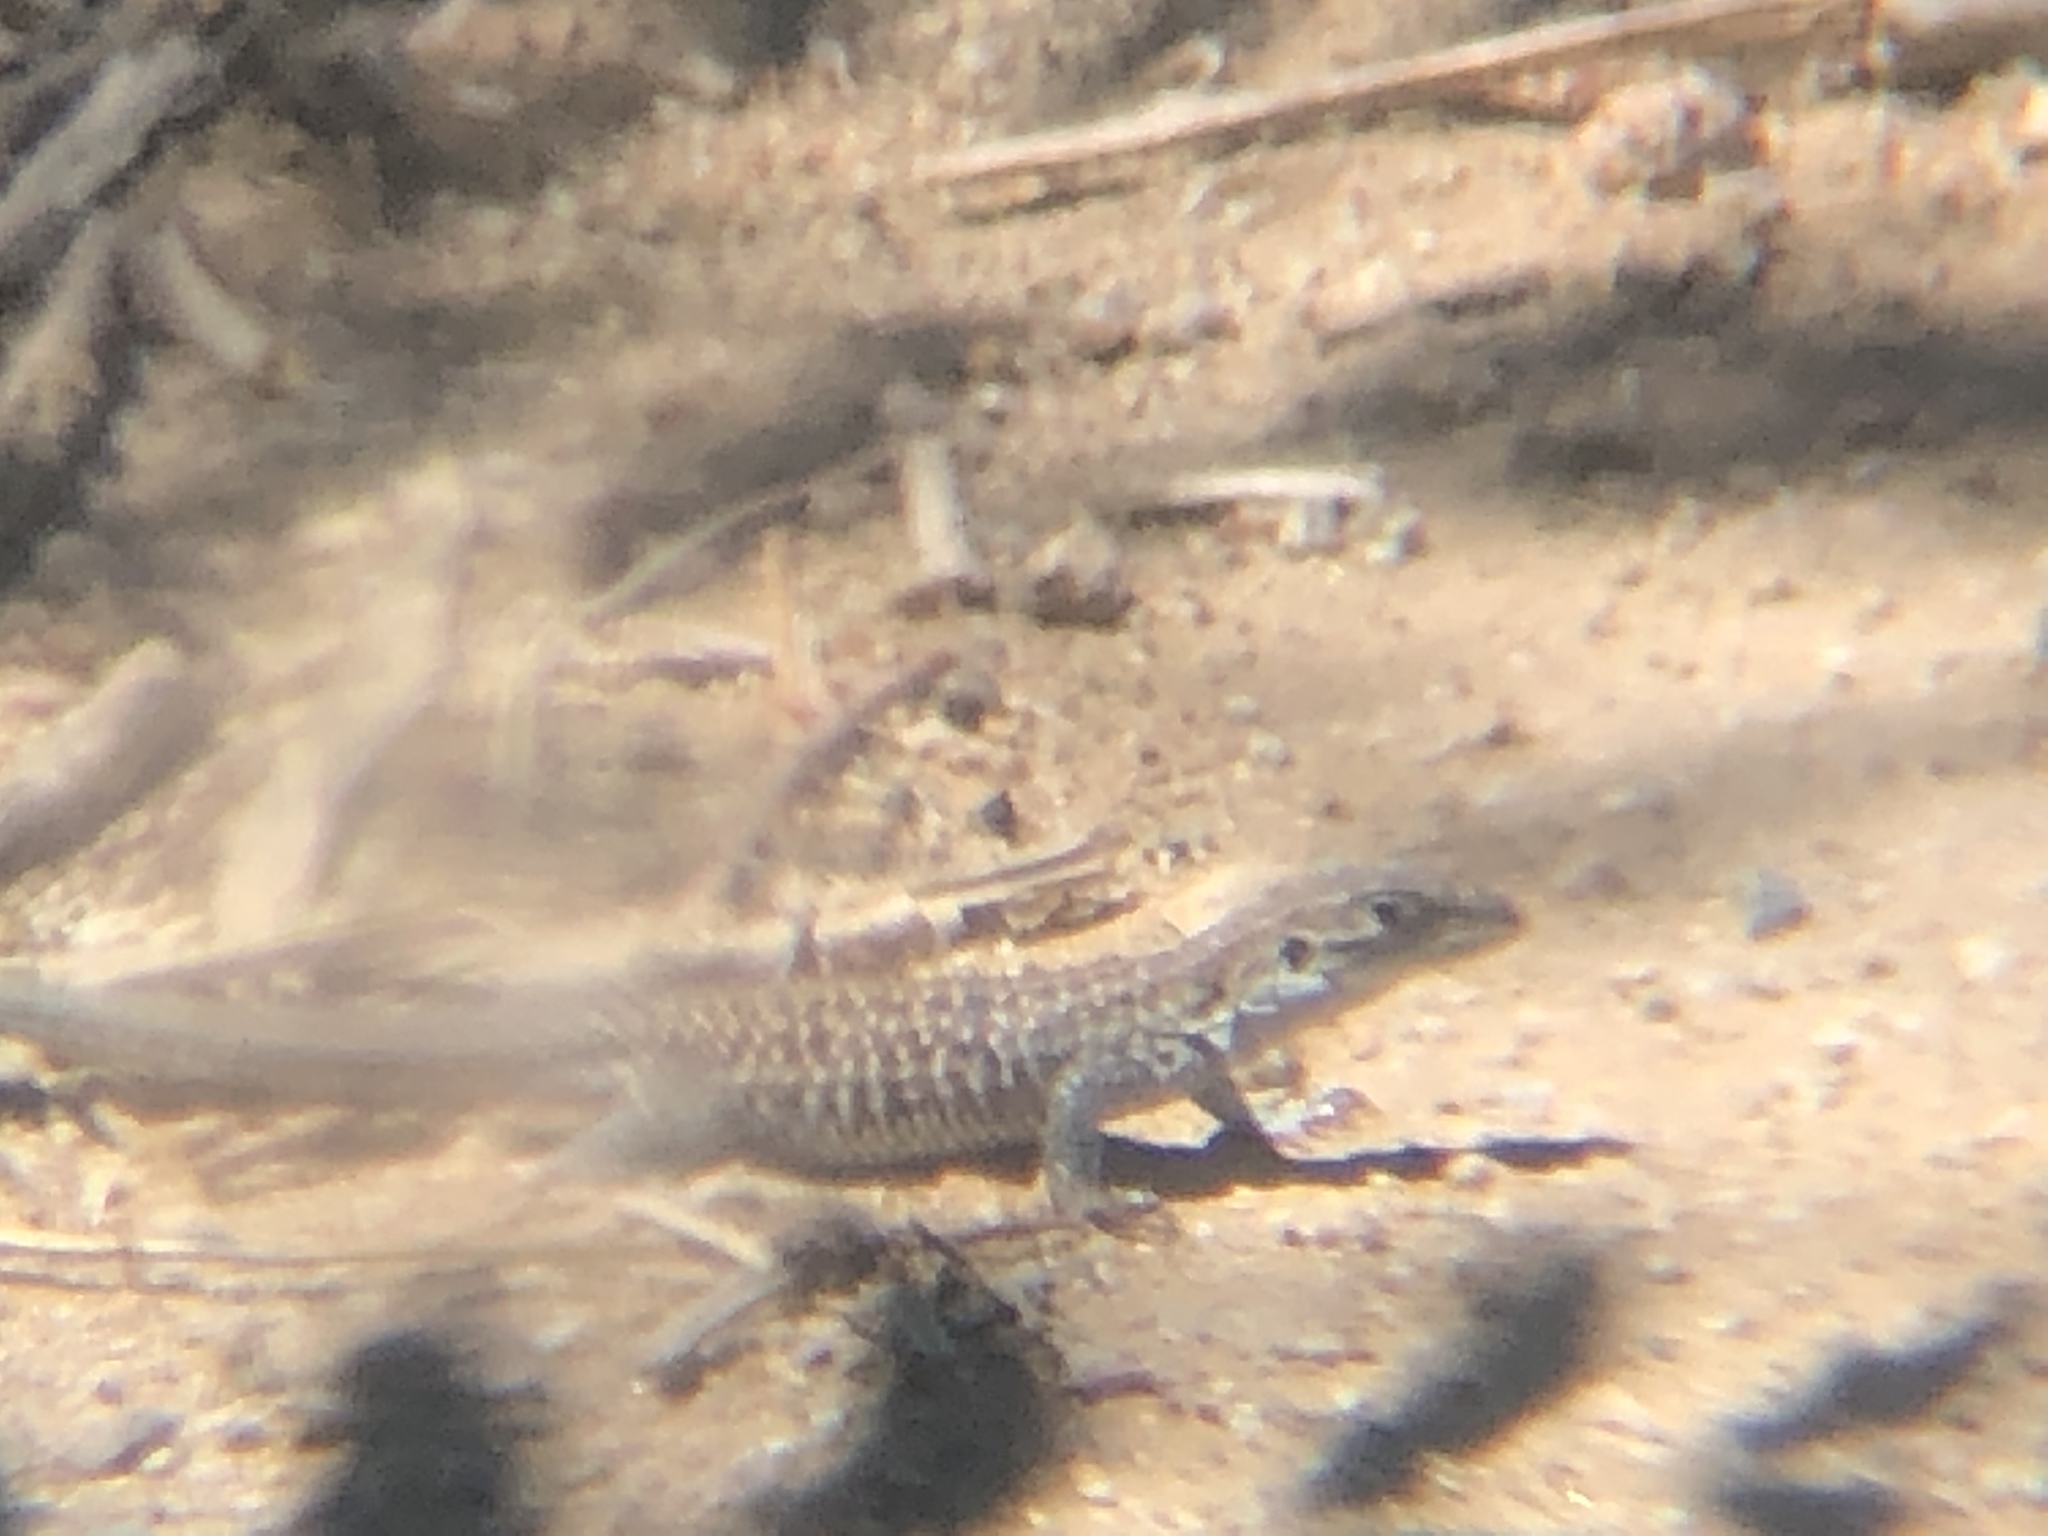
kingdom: Animalia
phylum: Chordata
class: Squamata
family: Teiidae
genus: Aspidoscelis
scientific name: Aspidoscelis exsanguis
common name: Chihuahuan spotted whiptail
